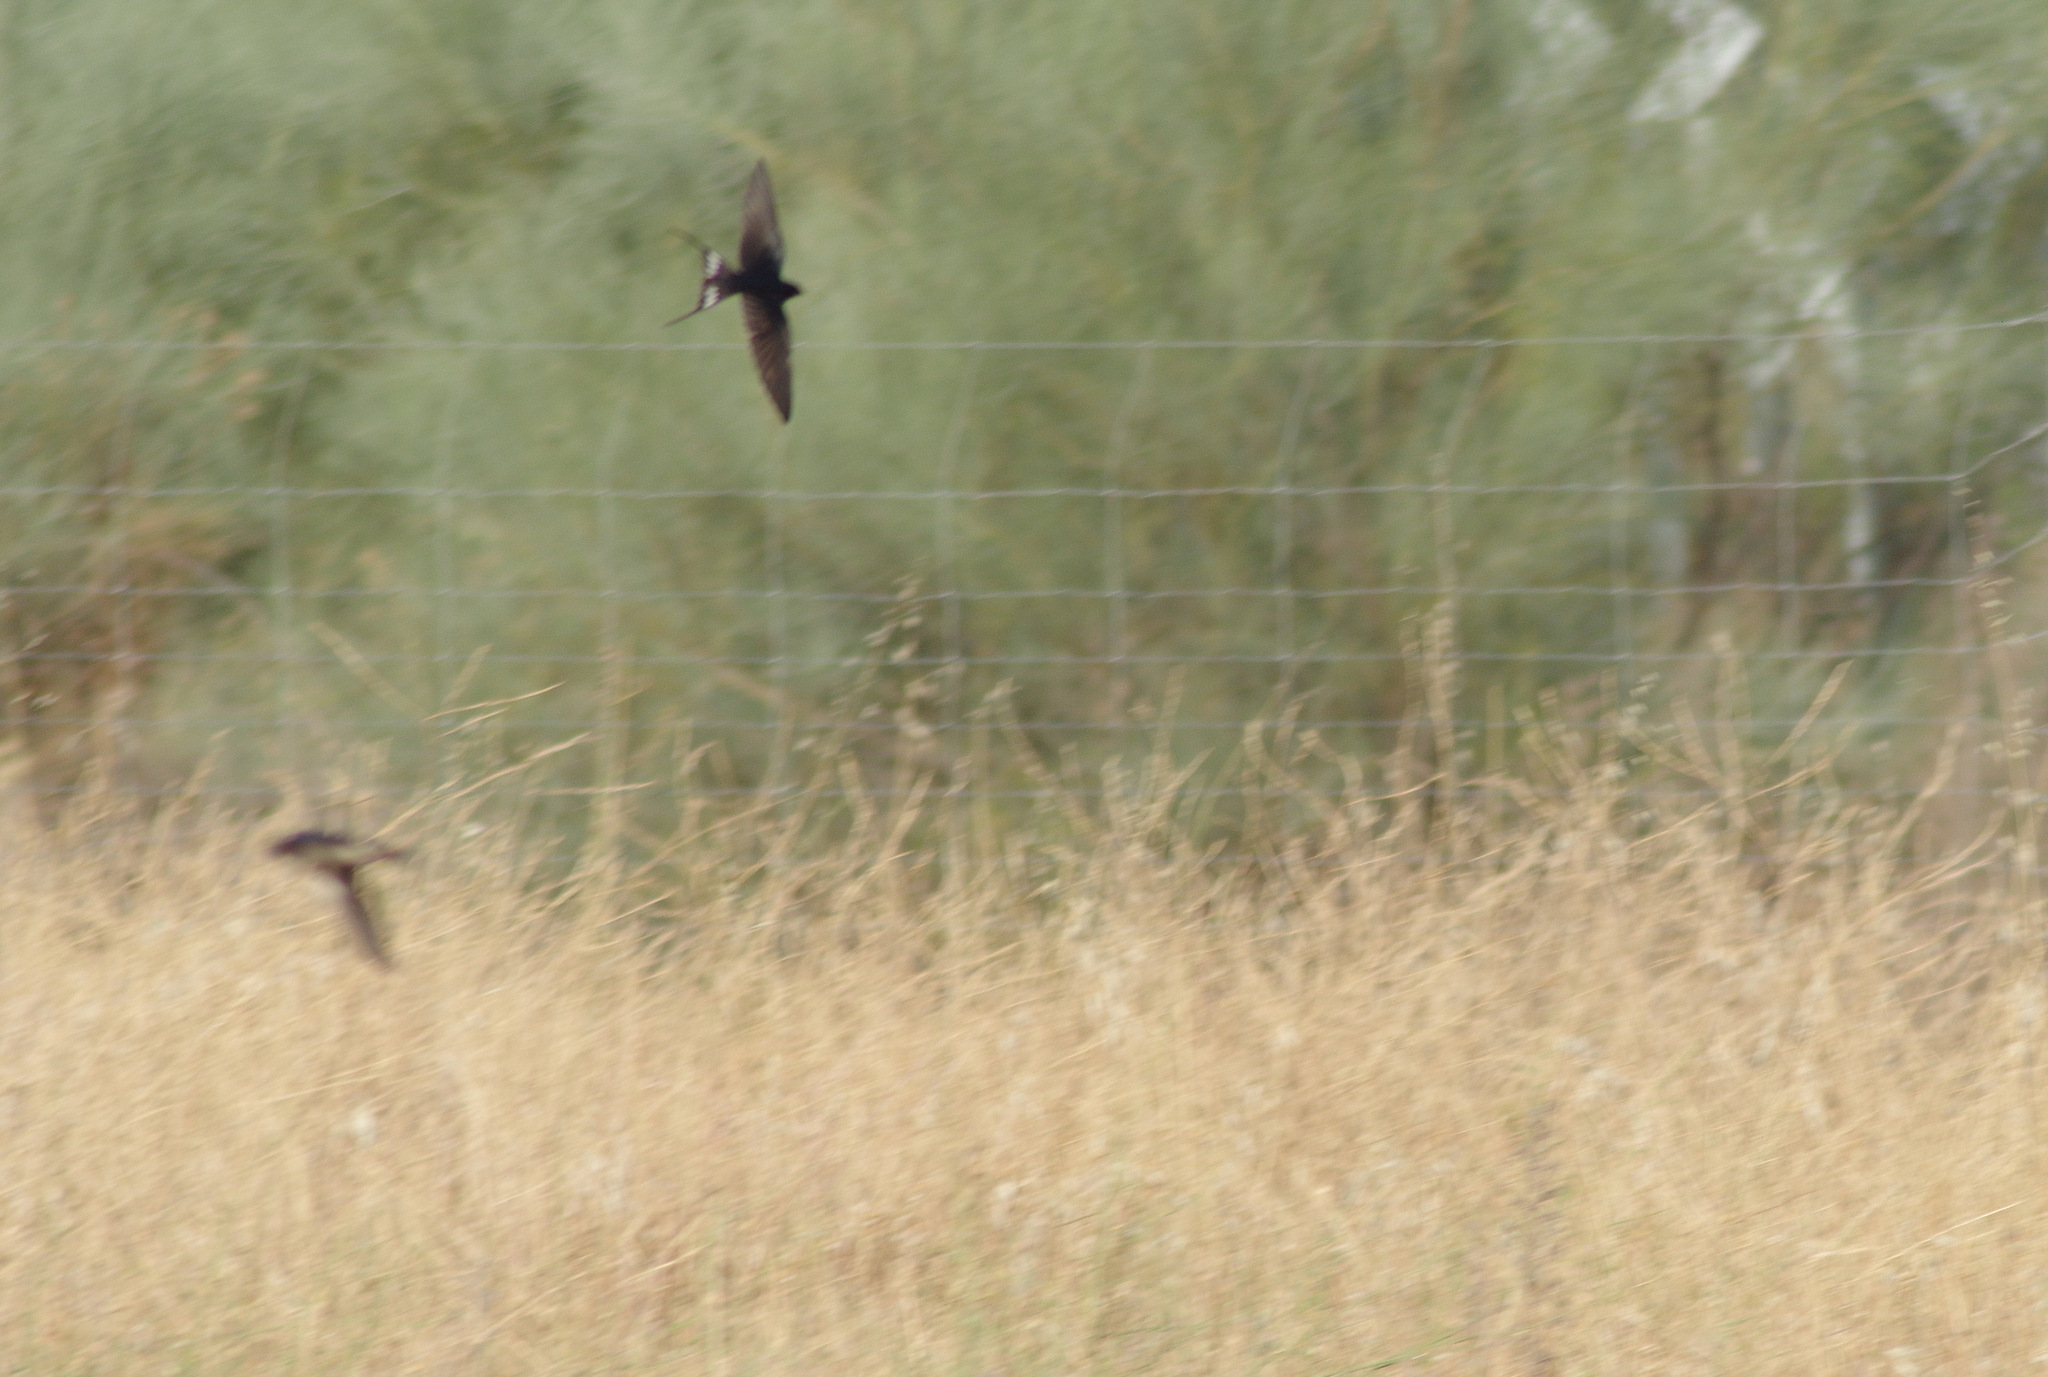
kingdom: Animalia
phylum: Chordata
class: Aves
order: Passeriformes
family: Hirundinidae
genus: Hirundo
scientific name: Hirundo rustica
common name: Barn swallow
